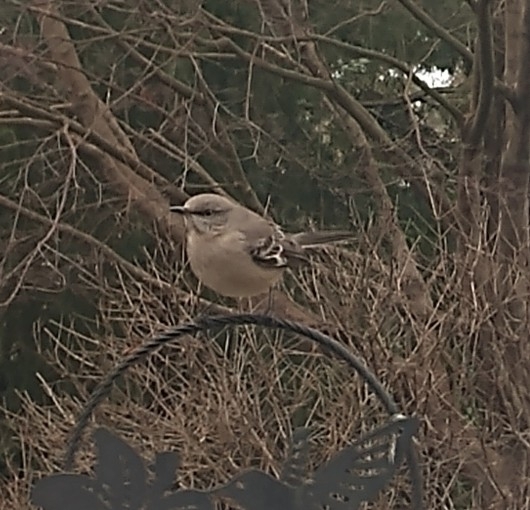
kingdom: Animalia
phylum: Chordata
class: Aves
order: Passeriformes
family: Mimidae
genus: Mimus
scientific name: Mimus polyglottos
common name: Northern mockingbird
